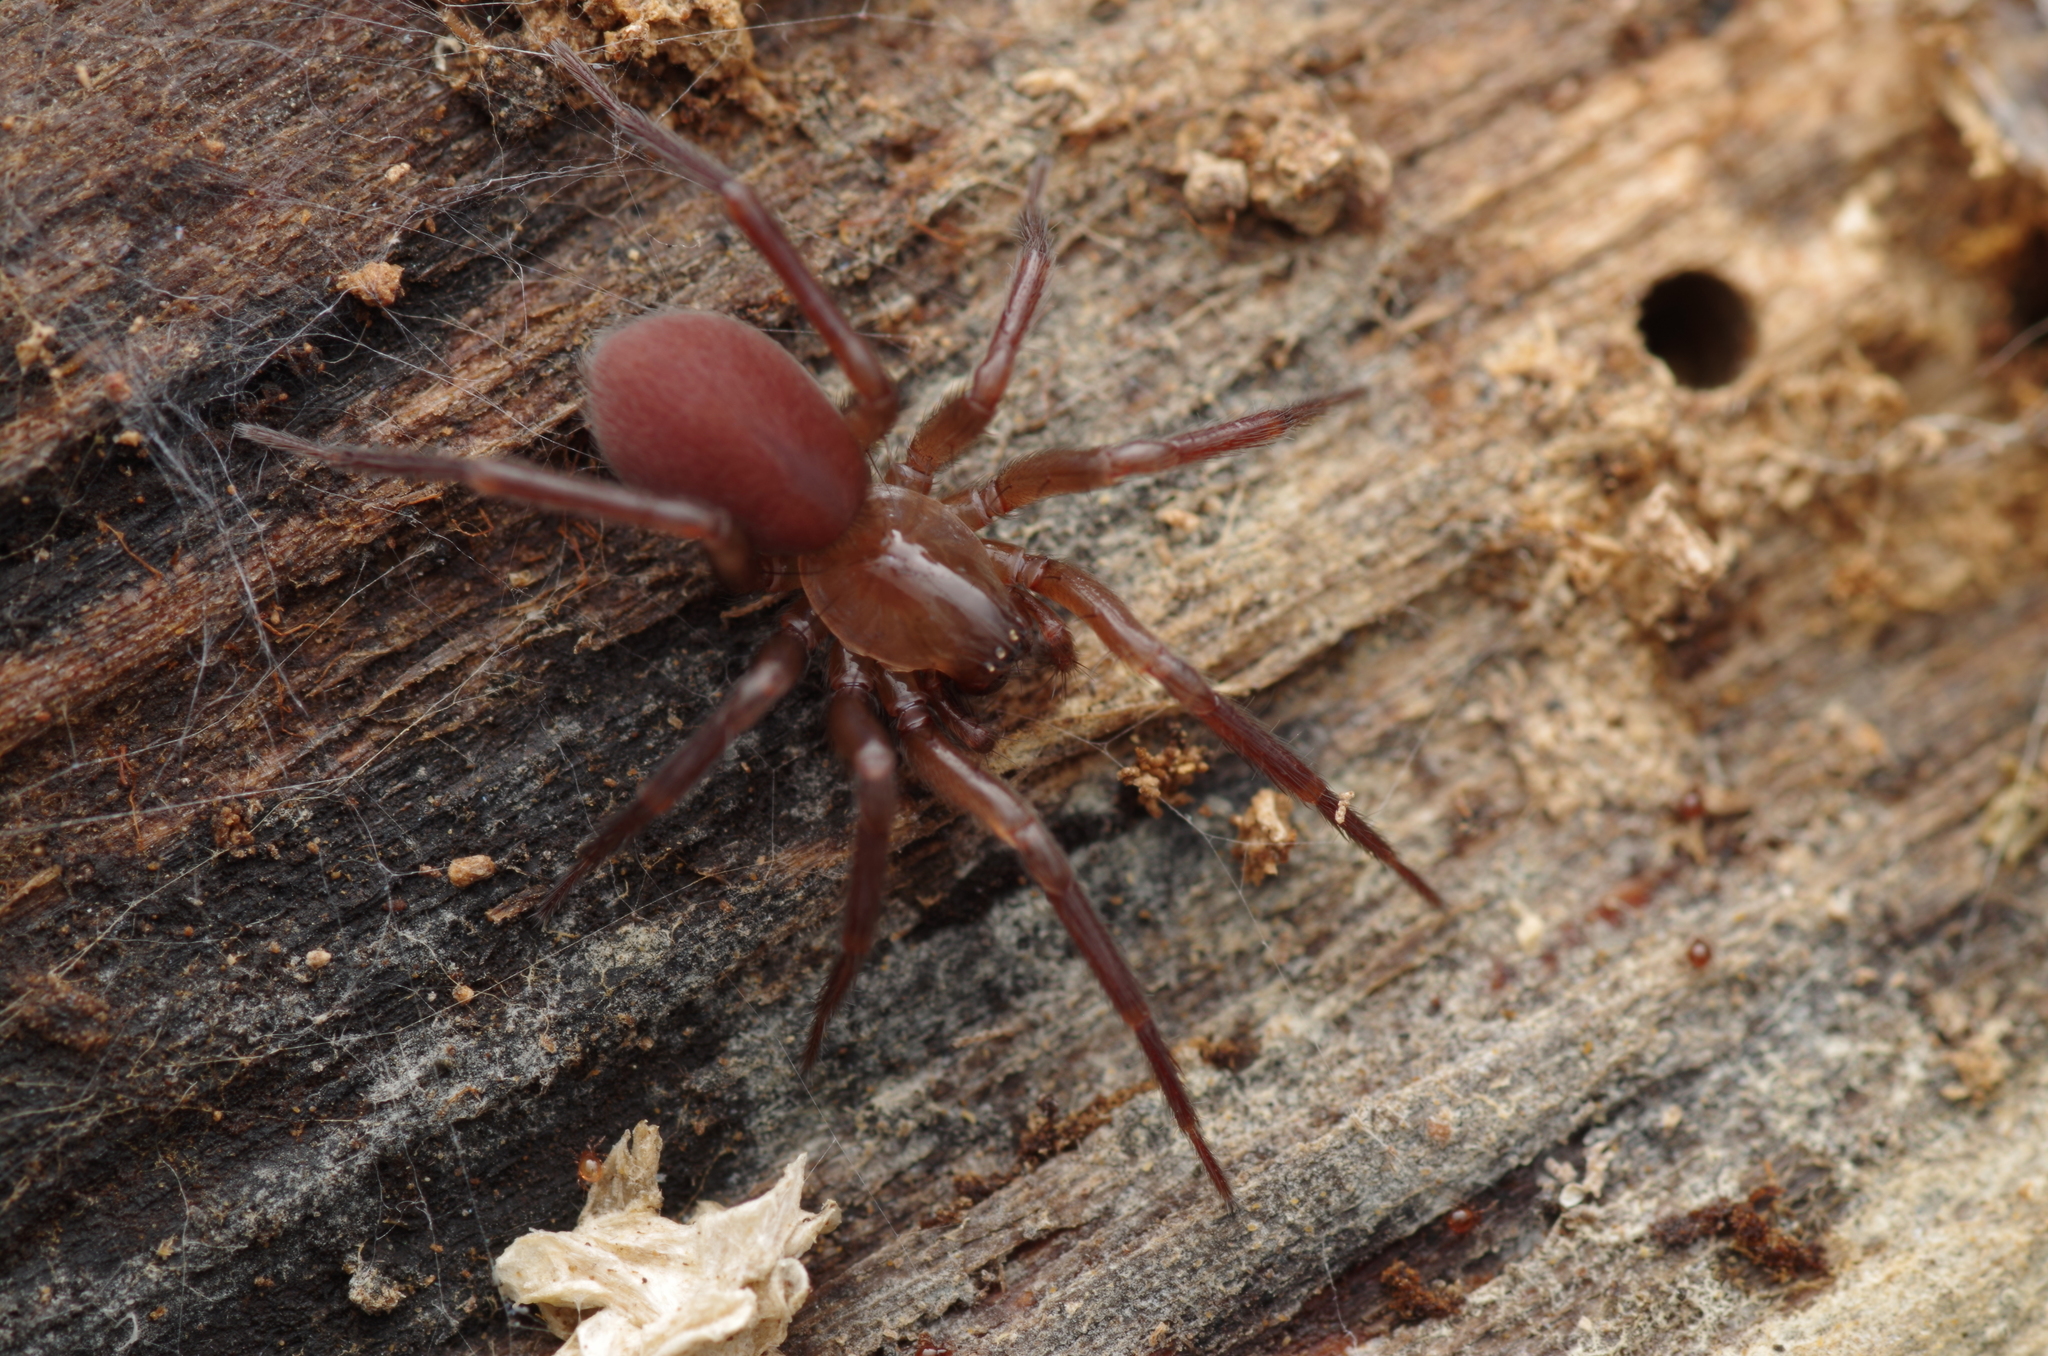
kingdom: Animalia
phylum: Arthropoda
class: Arachnida
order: Araneae
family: Hahniidae
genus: Cicurina
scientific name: Cicurina cicur
